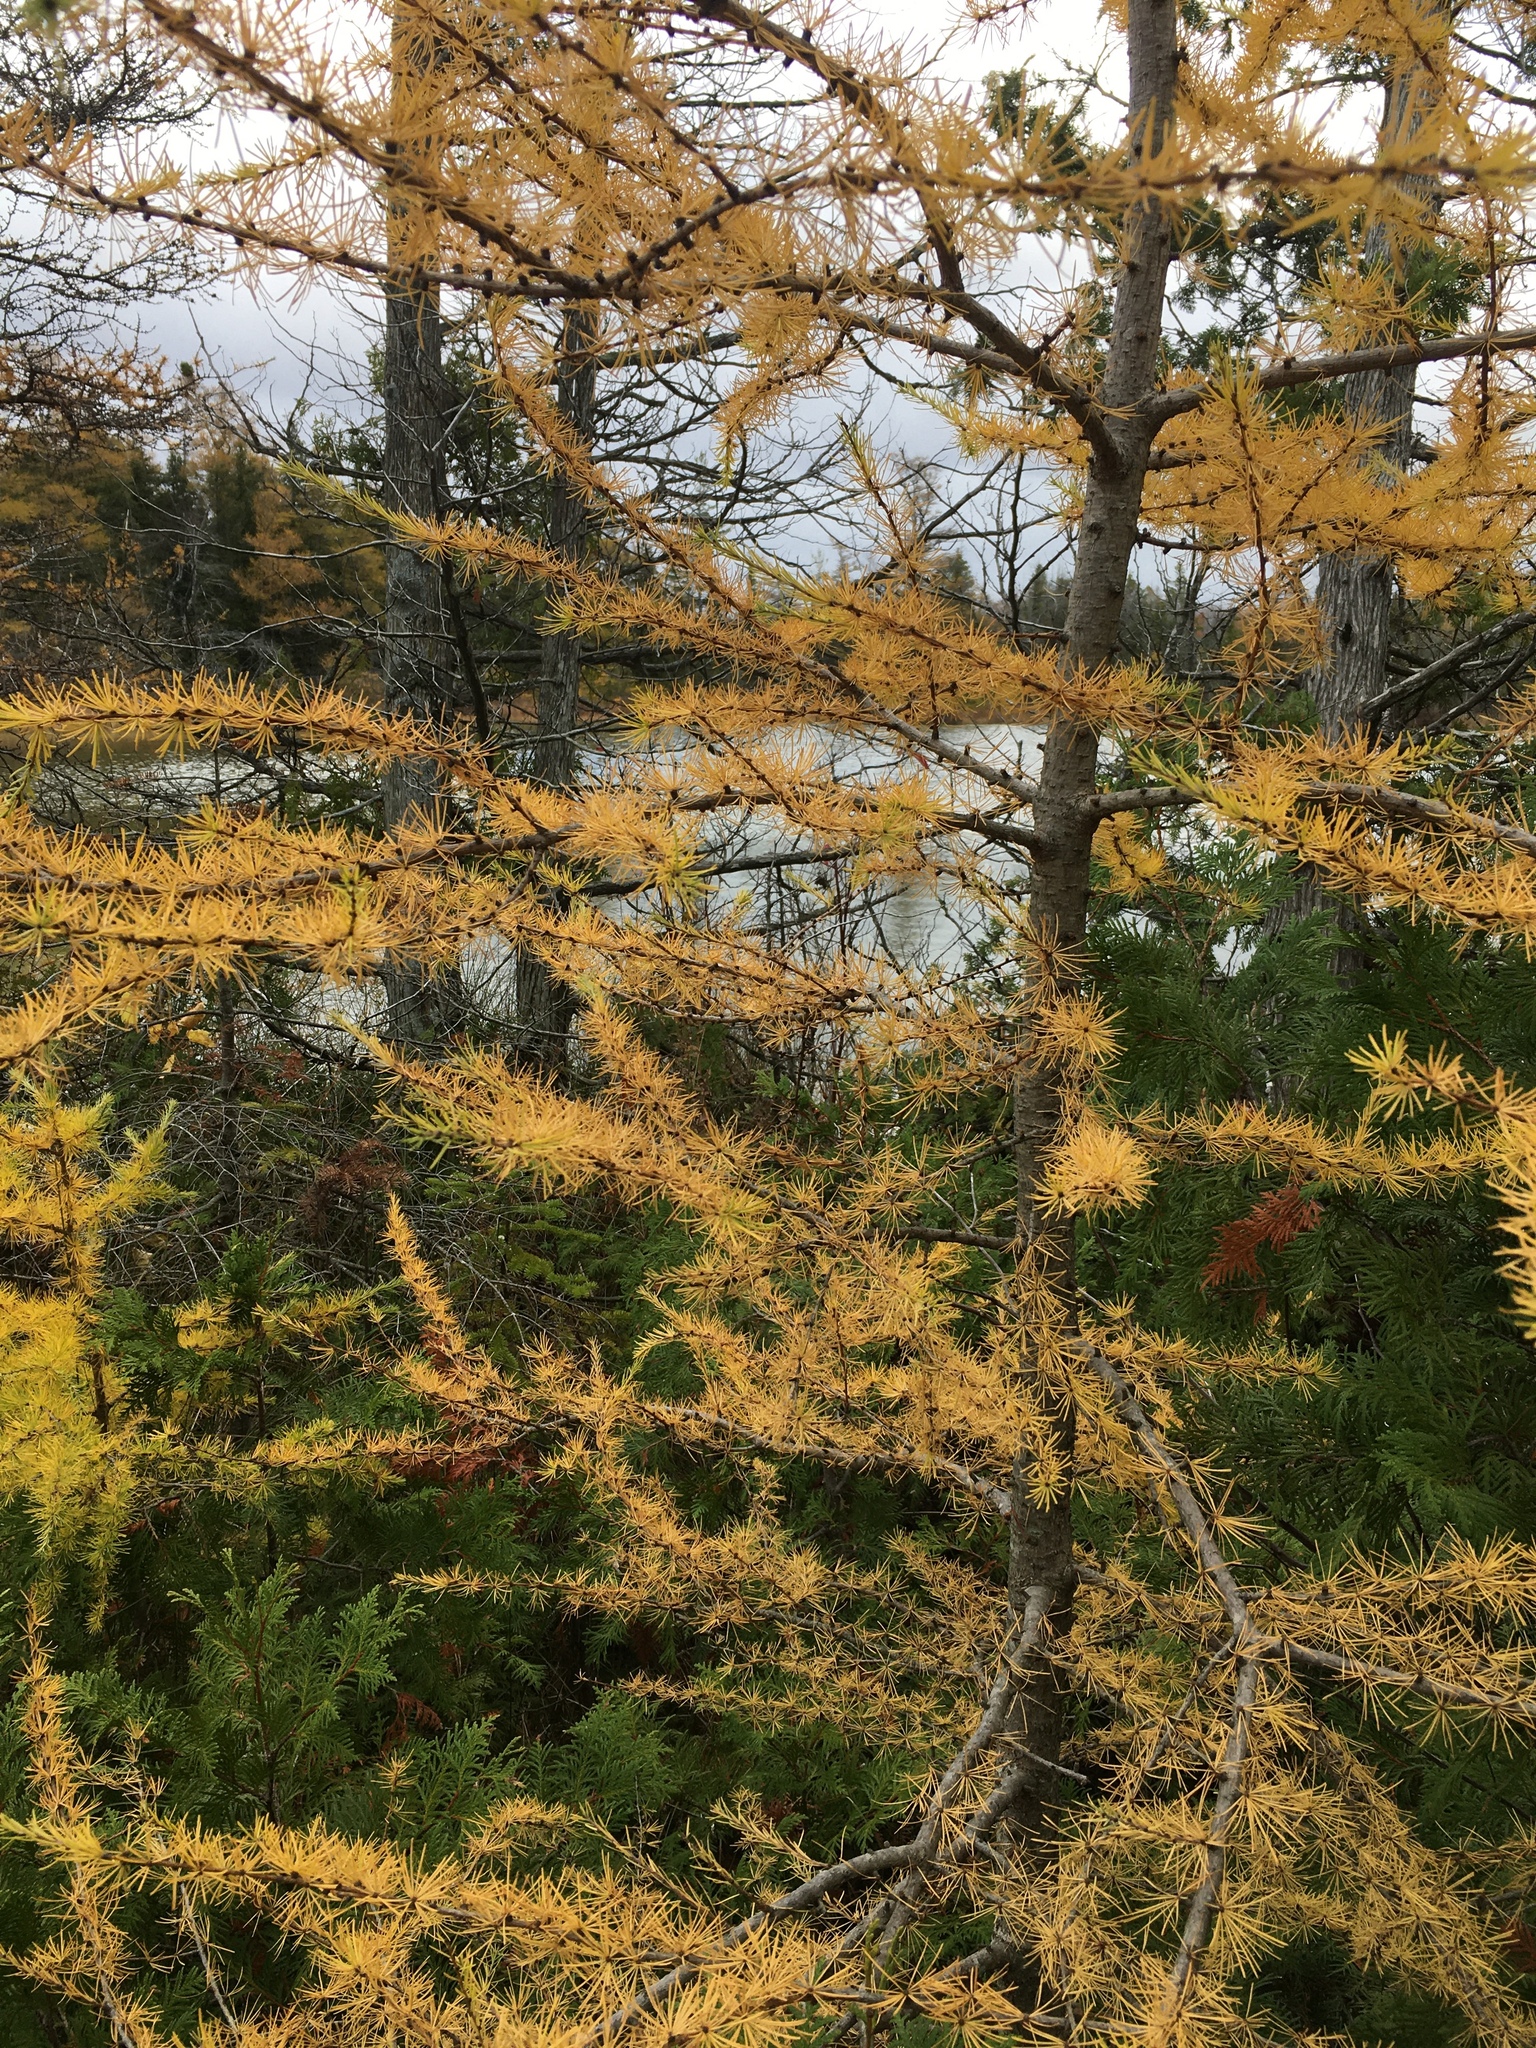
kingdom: Plantae
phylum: Tracheophyta
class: Pinopsida
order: Pinales
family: Pinaceae
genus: Larix
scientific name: Larix laricina
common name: American larch
